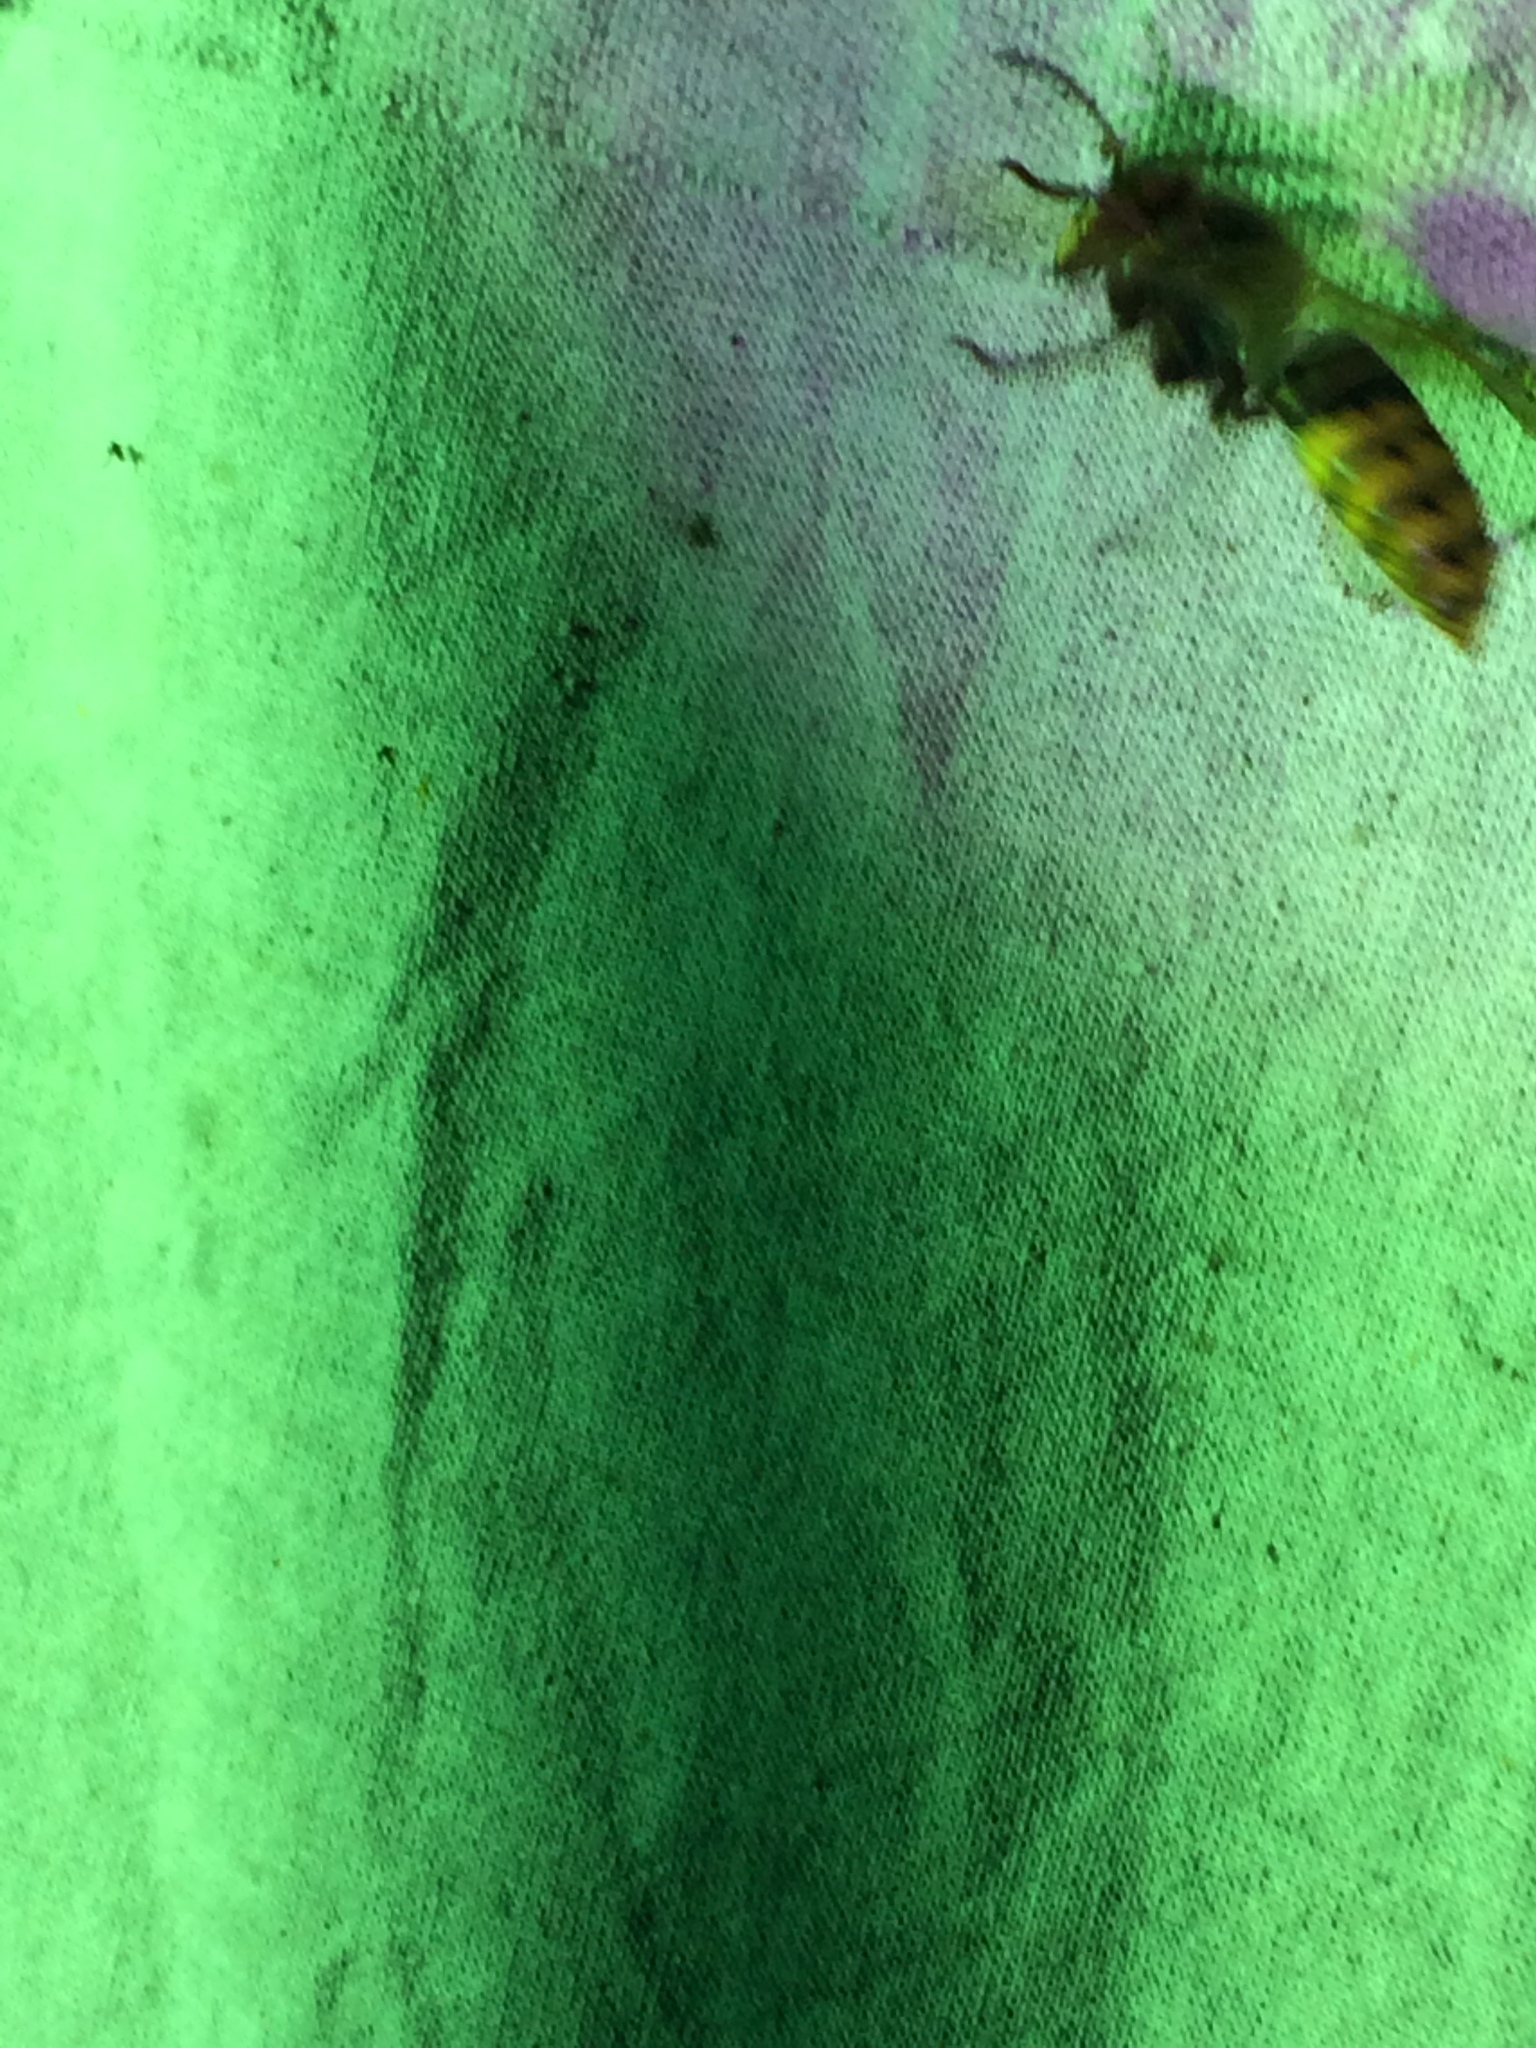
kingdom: Animalia
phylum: Arthropoda
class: Insecta
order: Hymenoptera
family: Vespidae
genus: Vespa
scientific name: Vespa crabro
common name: Hornet
